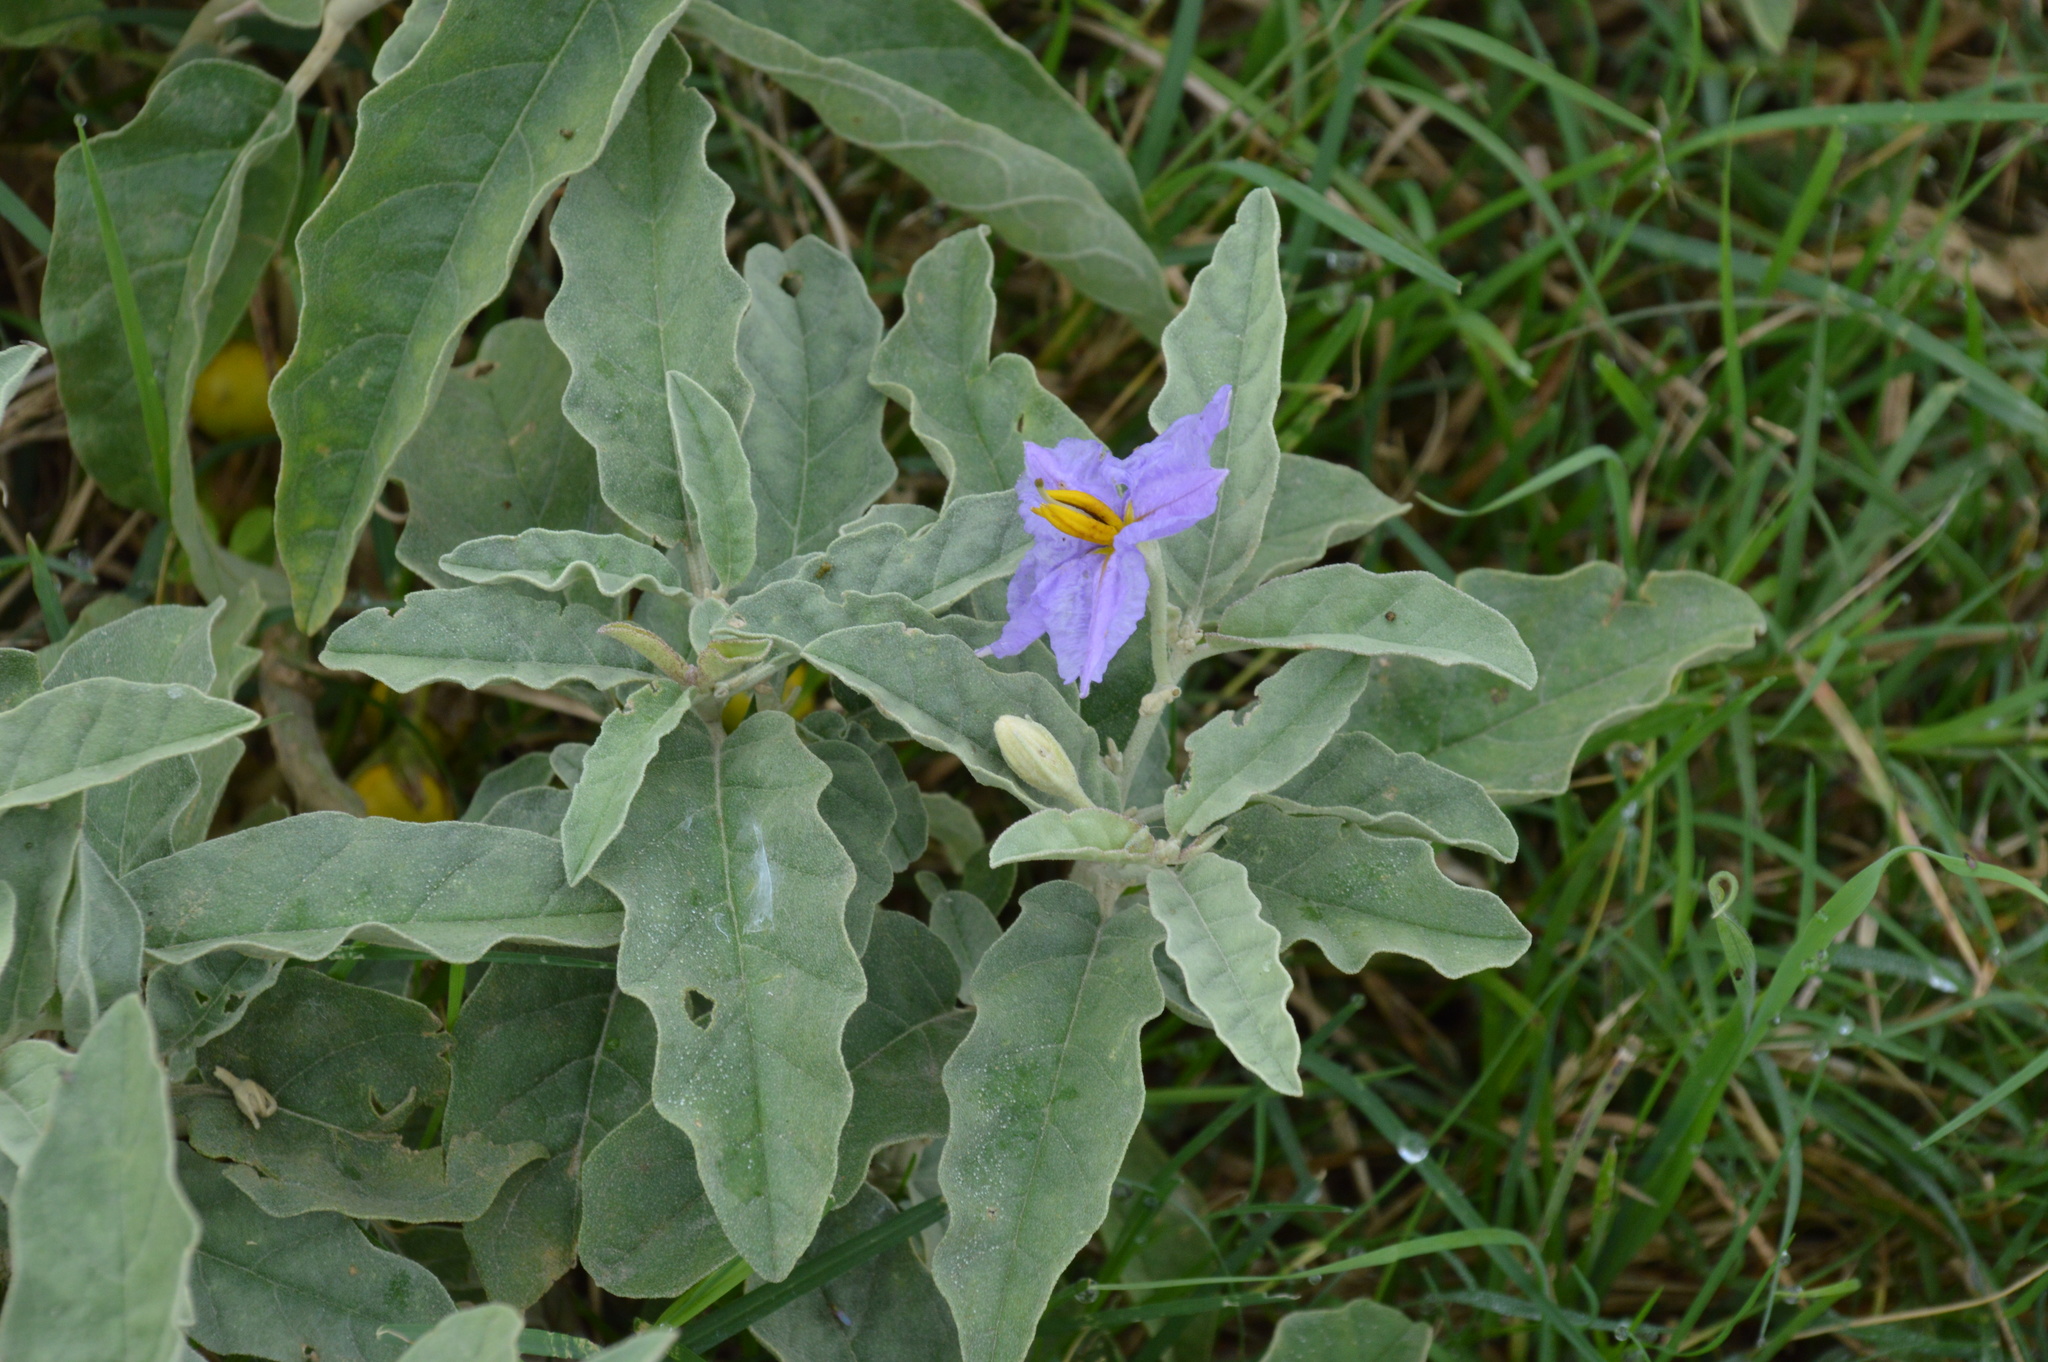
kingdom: Plantae
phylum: Tracheophyta
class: Magnoliopsida
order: Solanales
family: Solanaceae
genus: Solanum
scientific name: Solanum elaeagnifolium
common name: Silverleaf nightshade
